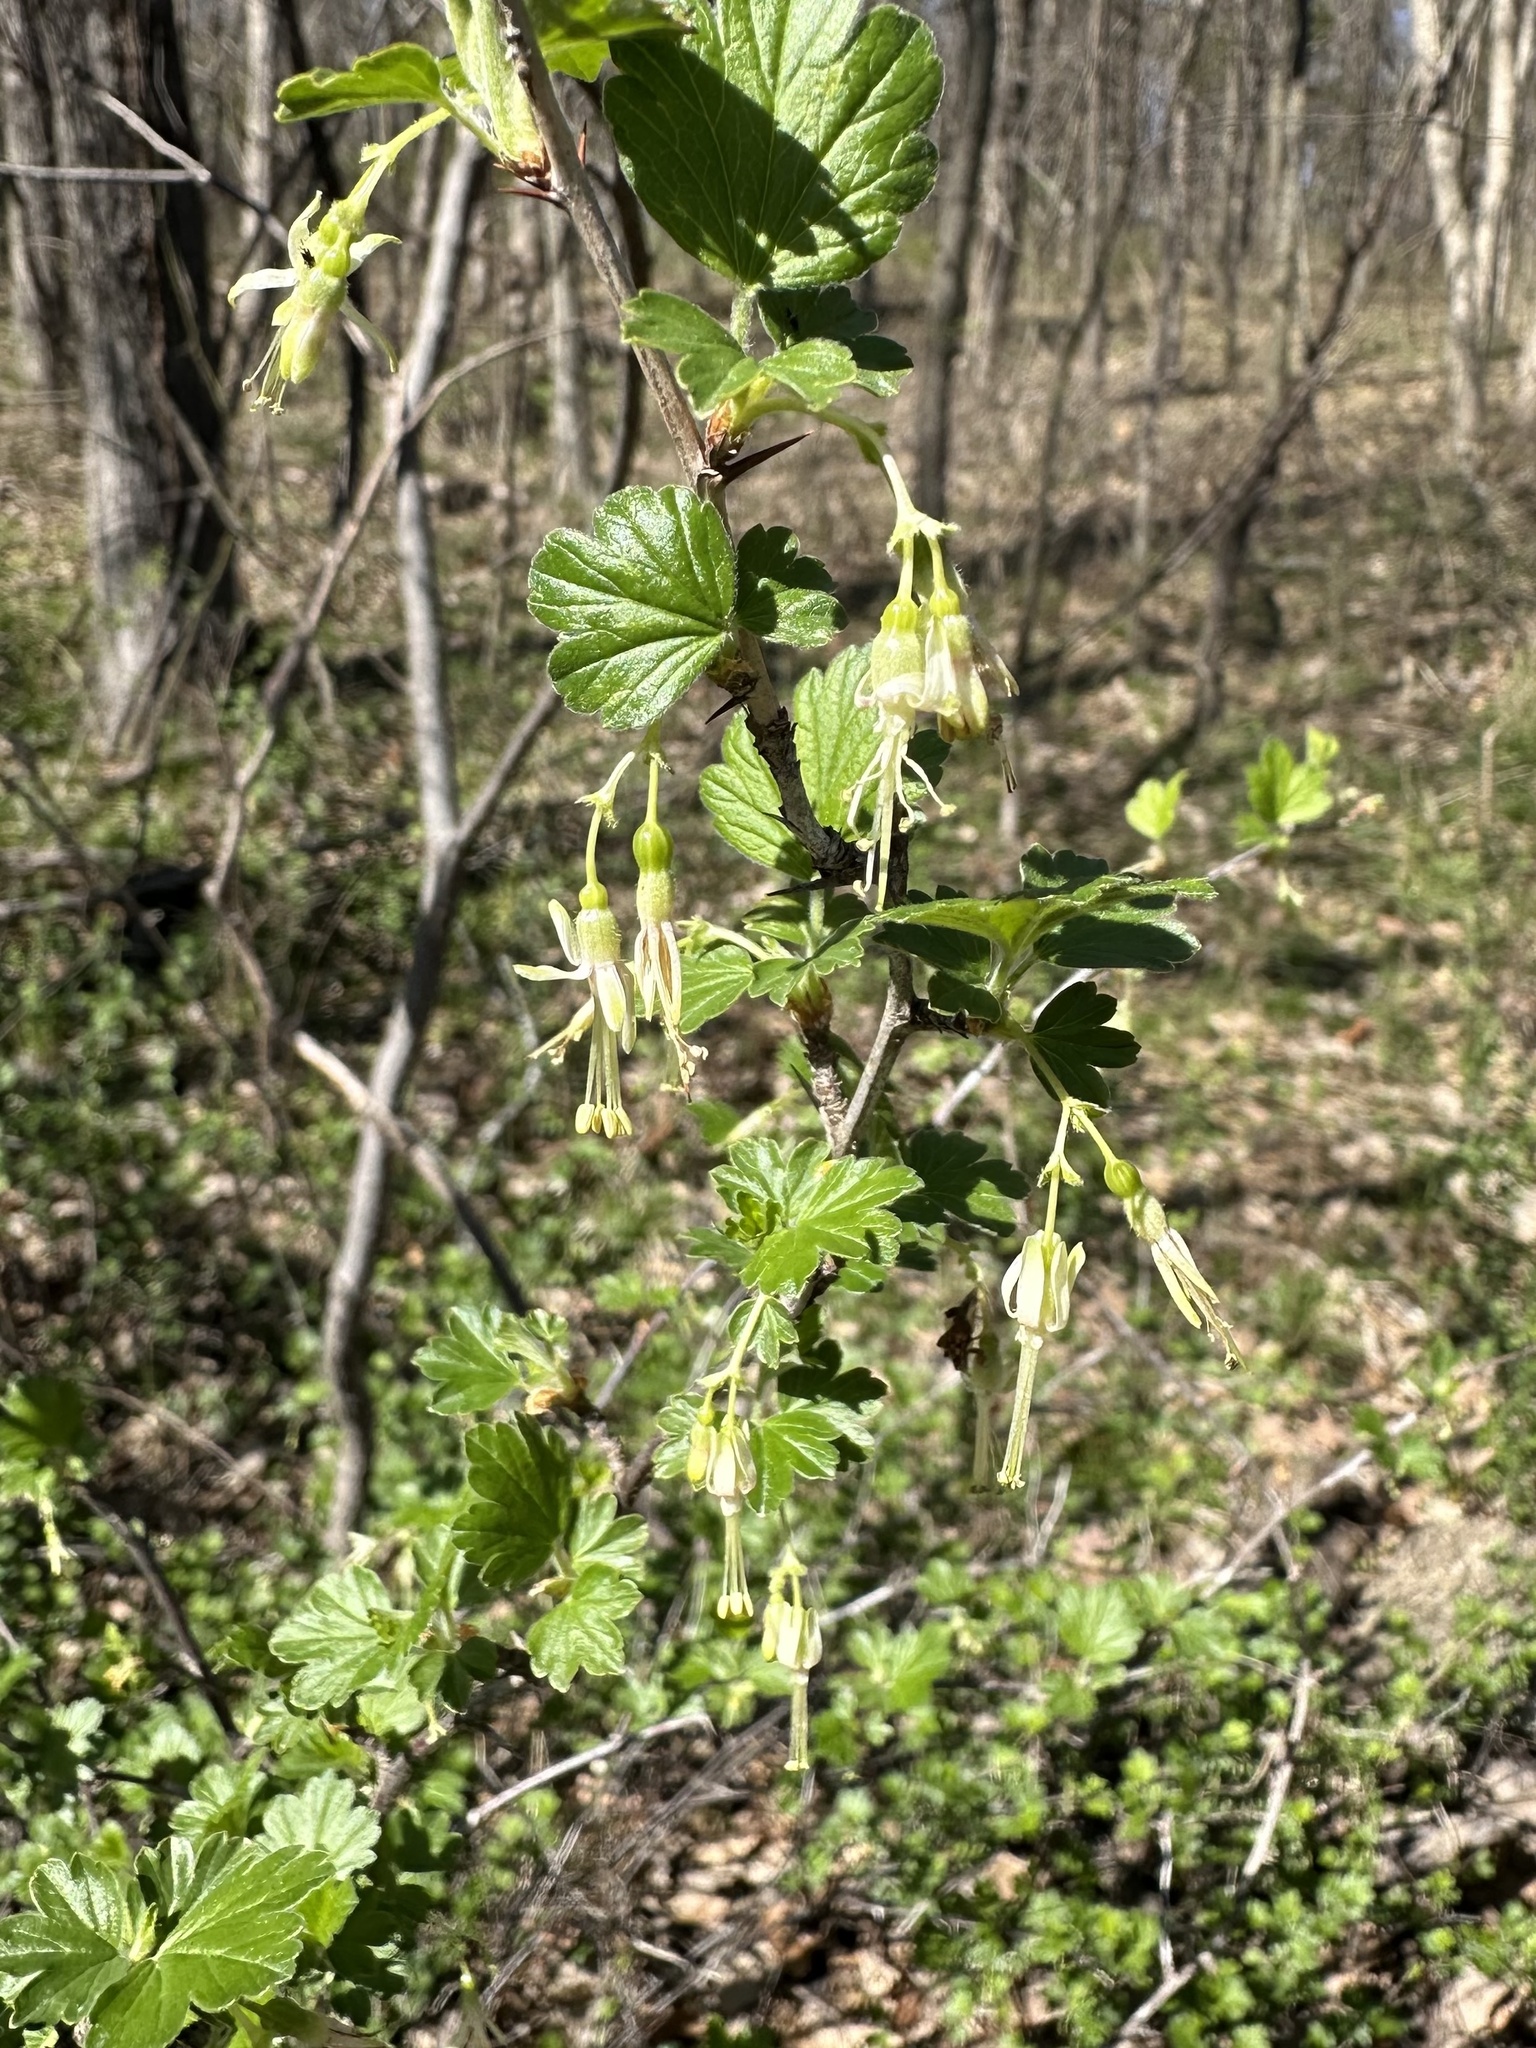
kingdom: Plantae
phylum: Tracheophyta
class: Magnoliopsida
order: Saxifragales
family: Grossulariaceae
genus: Ribes
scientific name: Ribes missouriense
